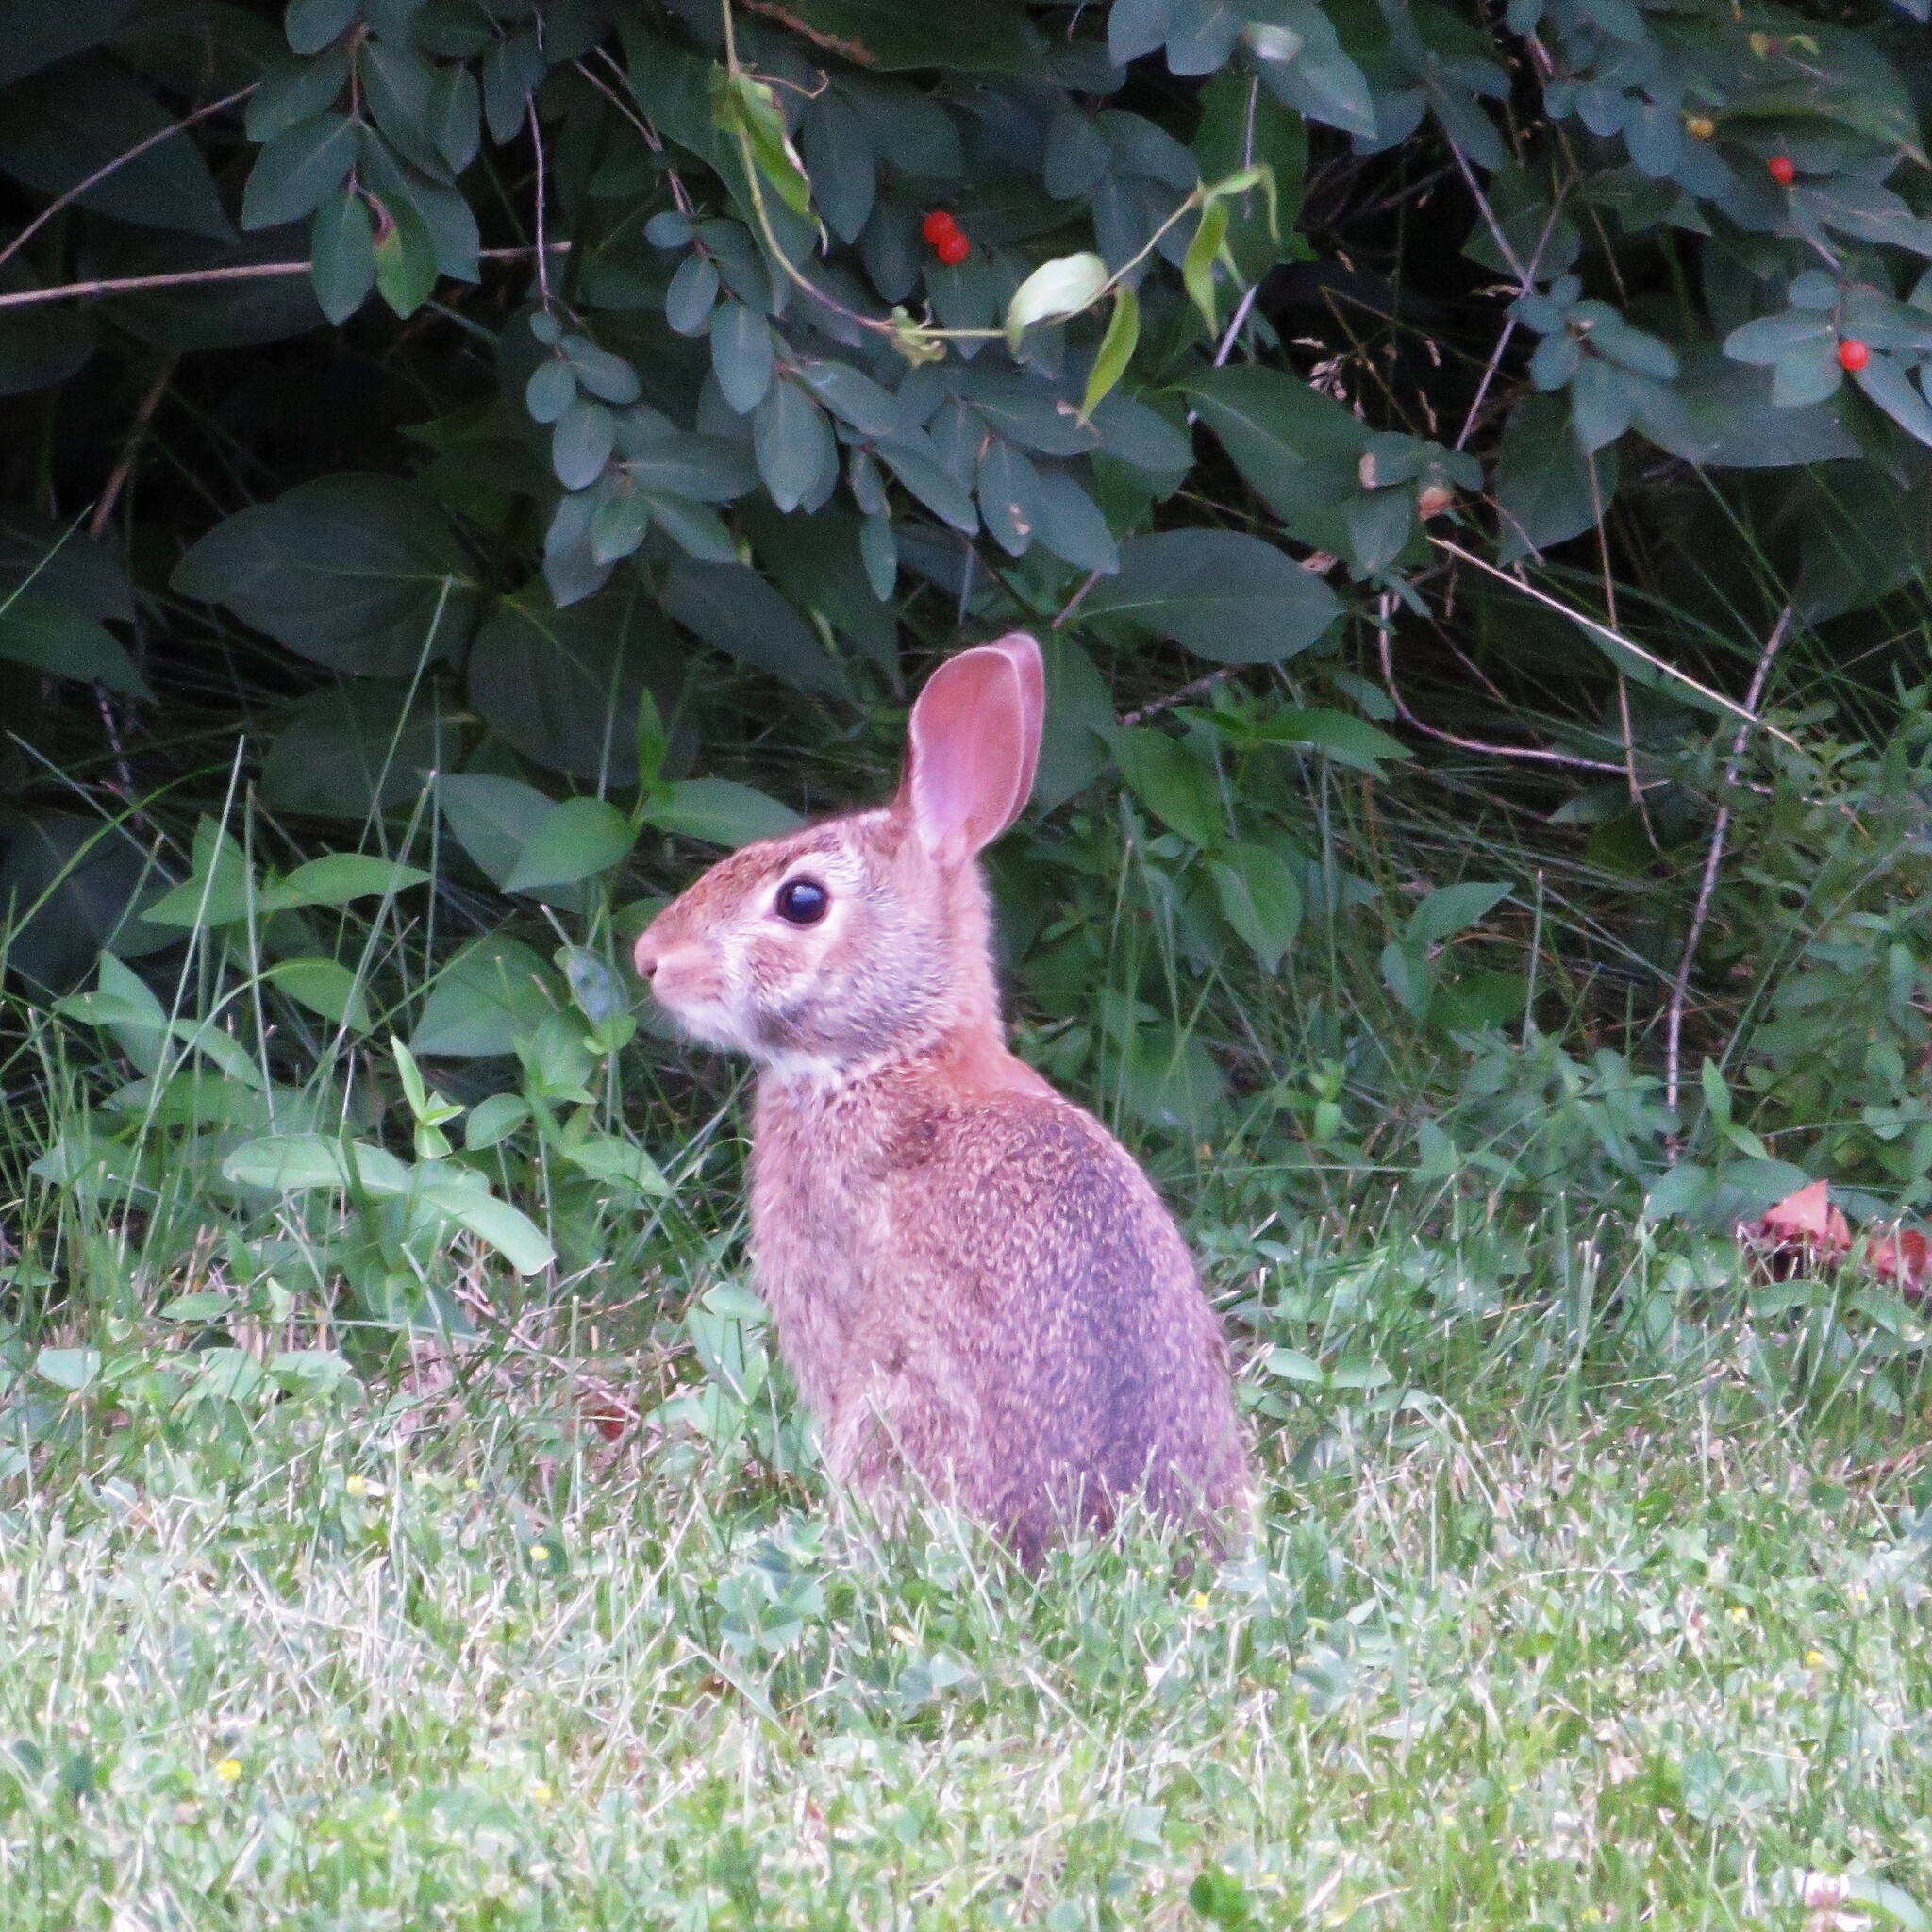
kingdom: Animalia
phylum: Chordata
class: Mammalia
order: Lagomorpha
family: Leporidae
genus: Sylvilagus
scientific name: Sylvilagus floridanus
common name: Eastern cottontail
